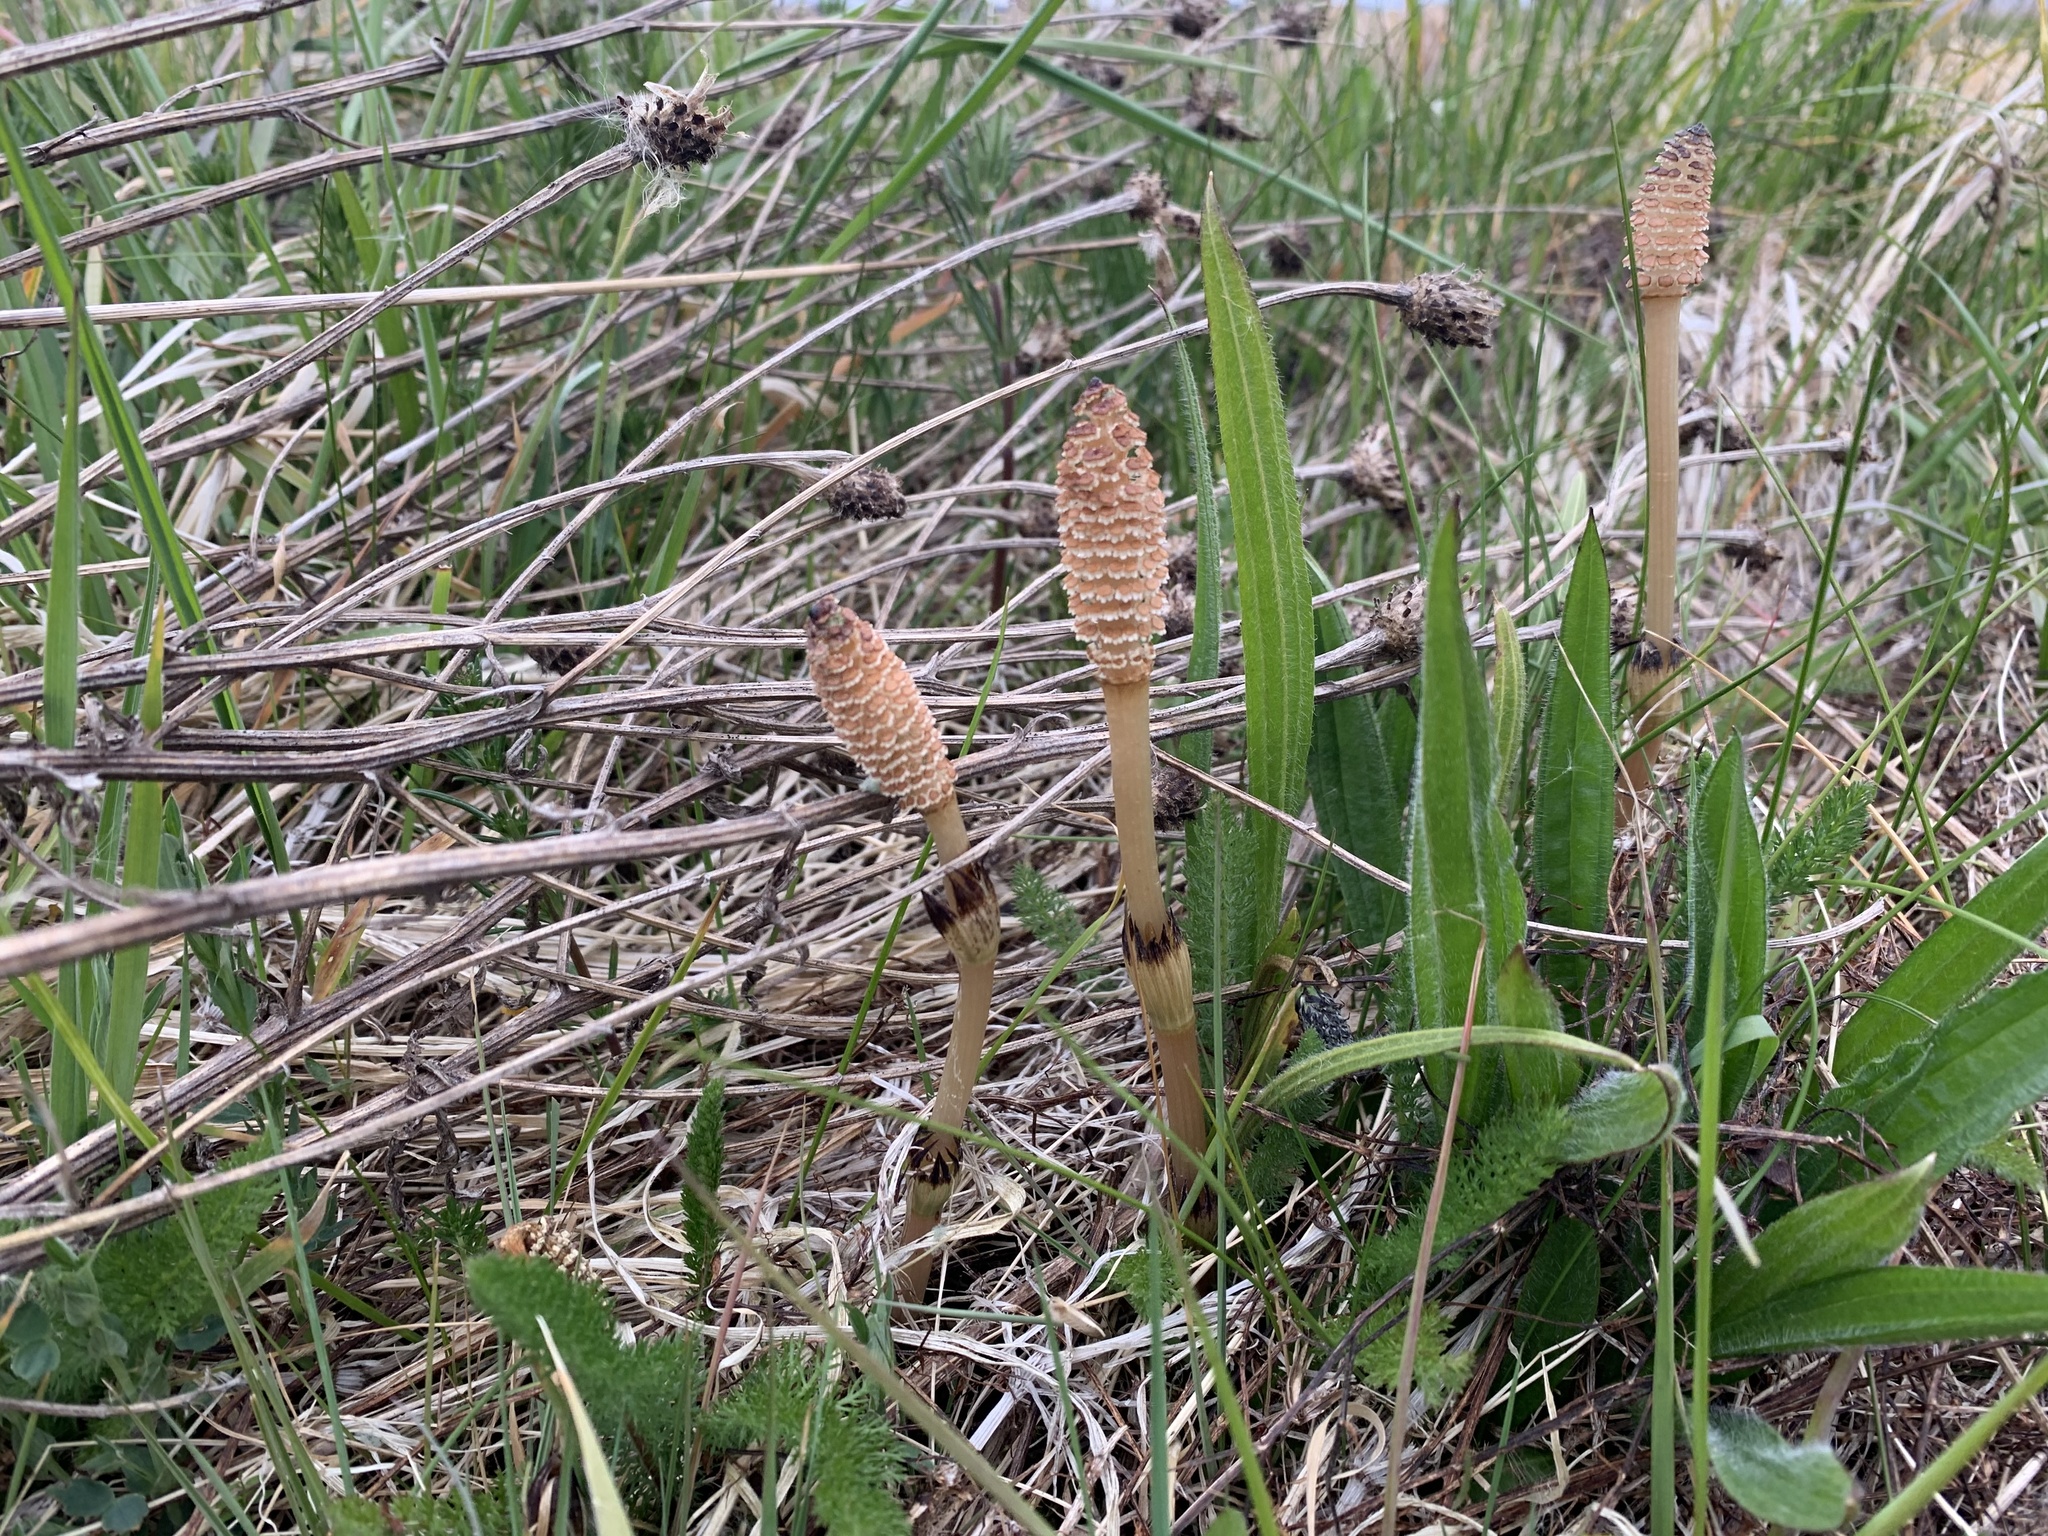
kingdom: Plantae
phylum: Tracheophyta
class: Polypodiopsida
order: Equisetales
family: Equisetaceae
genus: Equisetum
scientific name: Equisetum arvense
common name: Field horsetail
